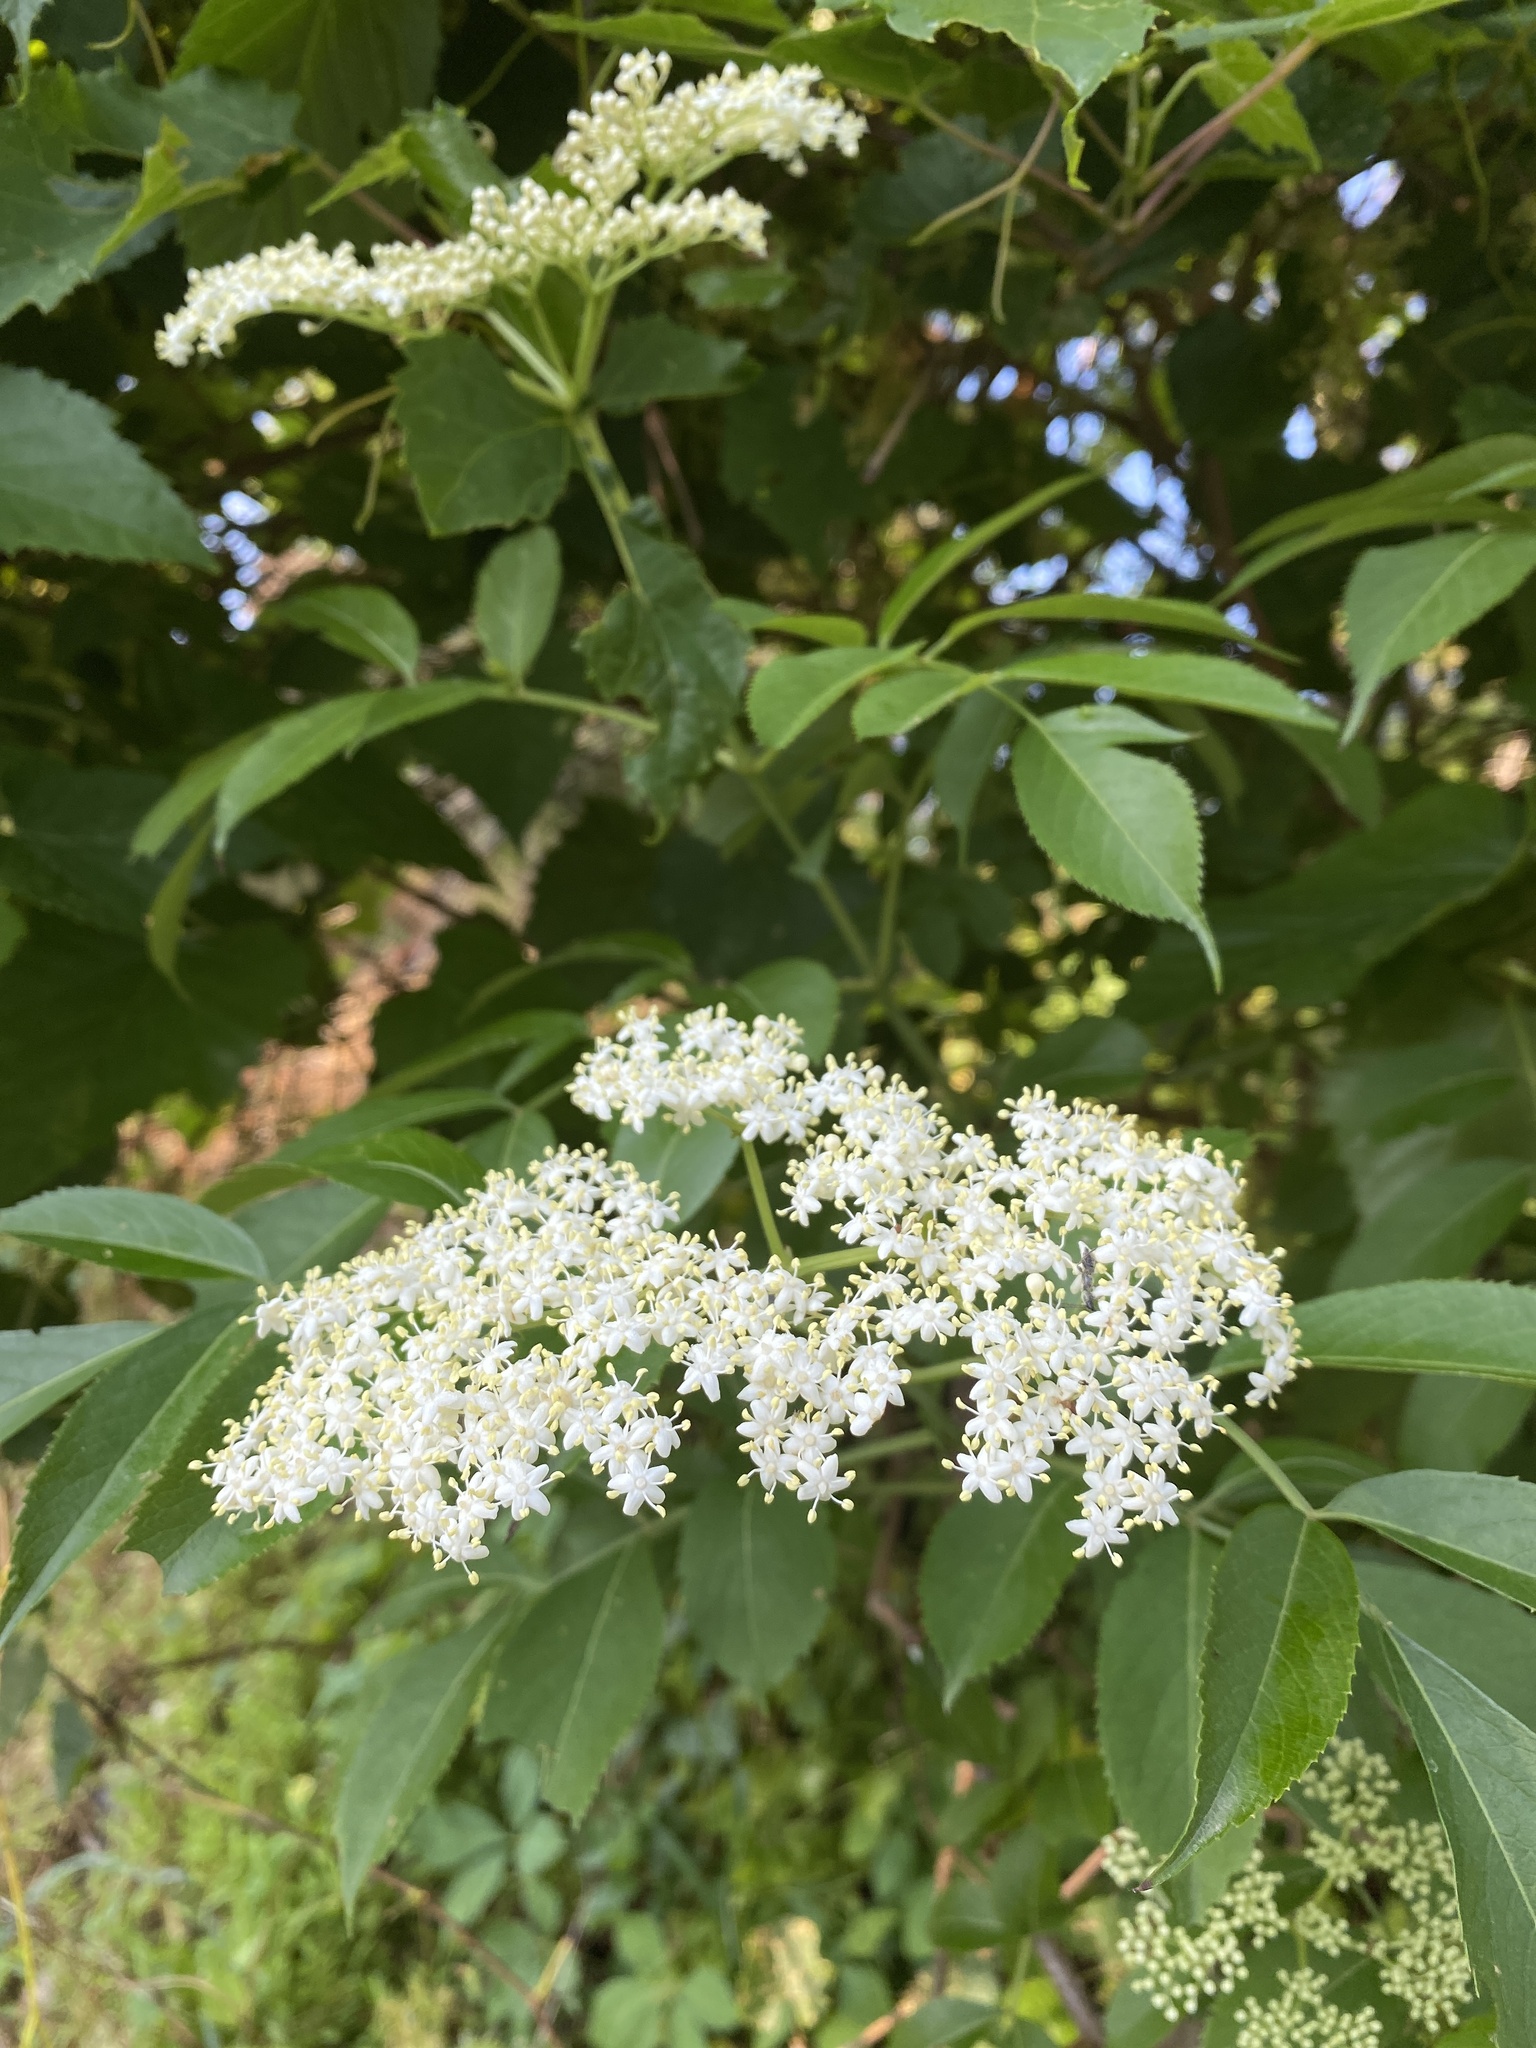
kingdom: Plantae
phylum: Tracheophyta
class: Magnoliopsida
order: Dipsacales
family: Viburnaceae
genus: Sambucus
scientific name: Sambucus canadensis
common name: American elder
